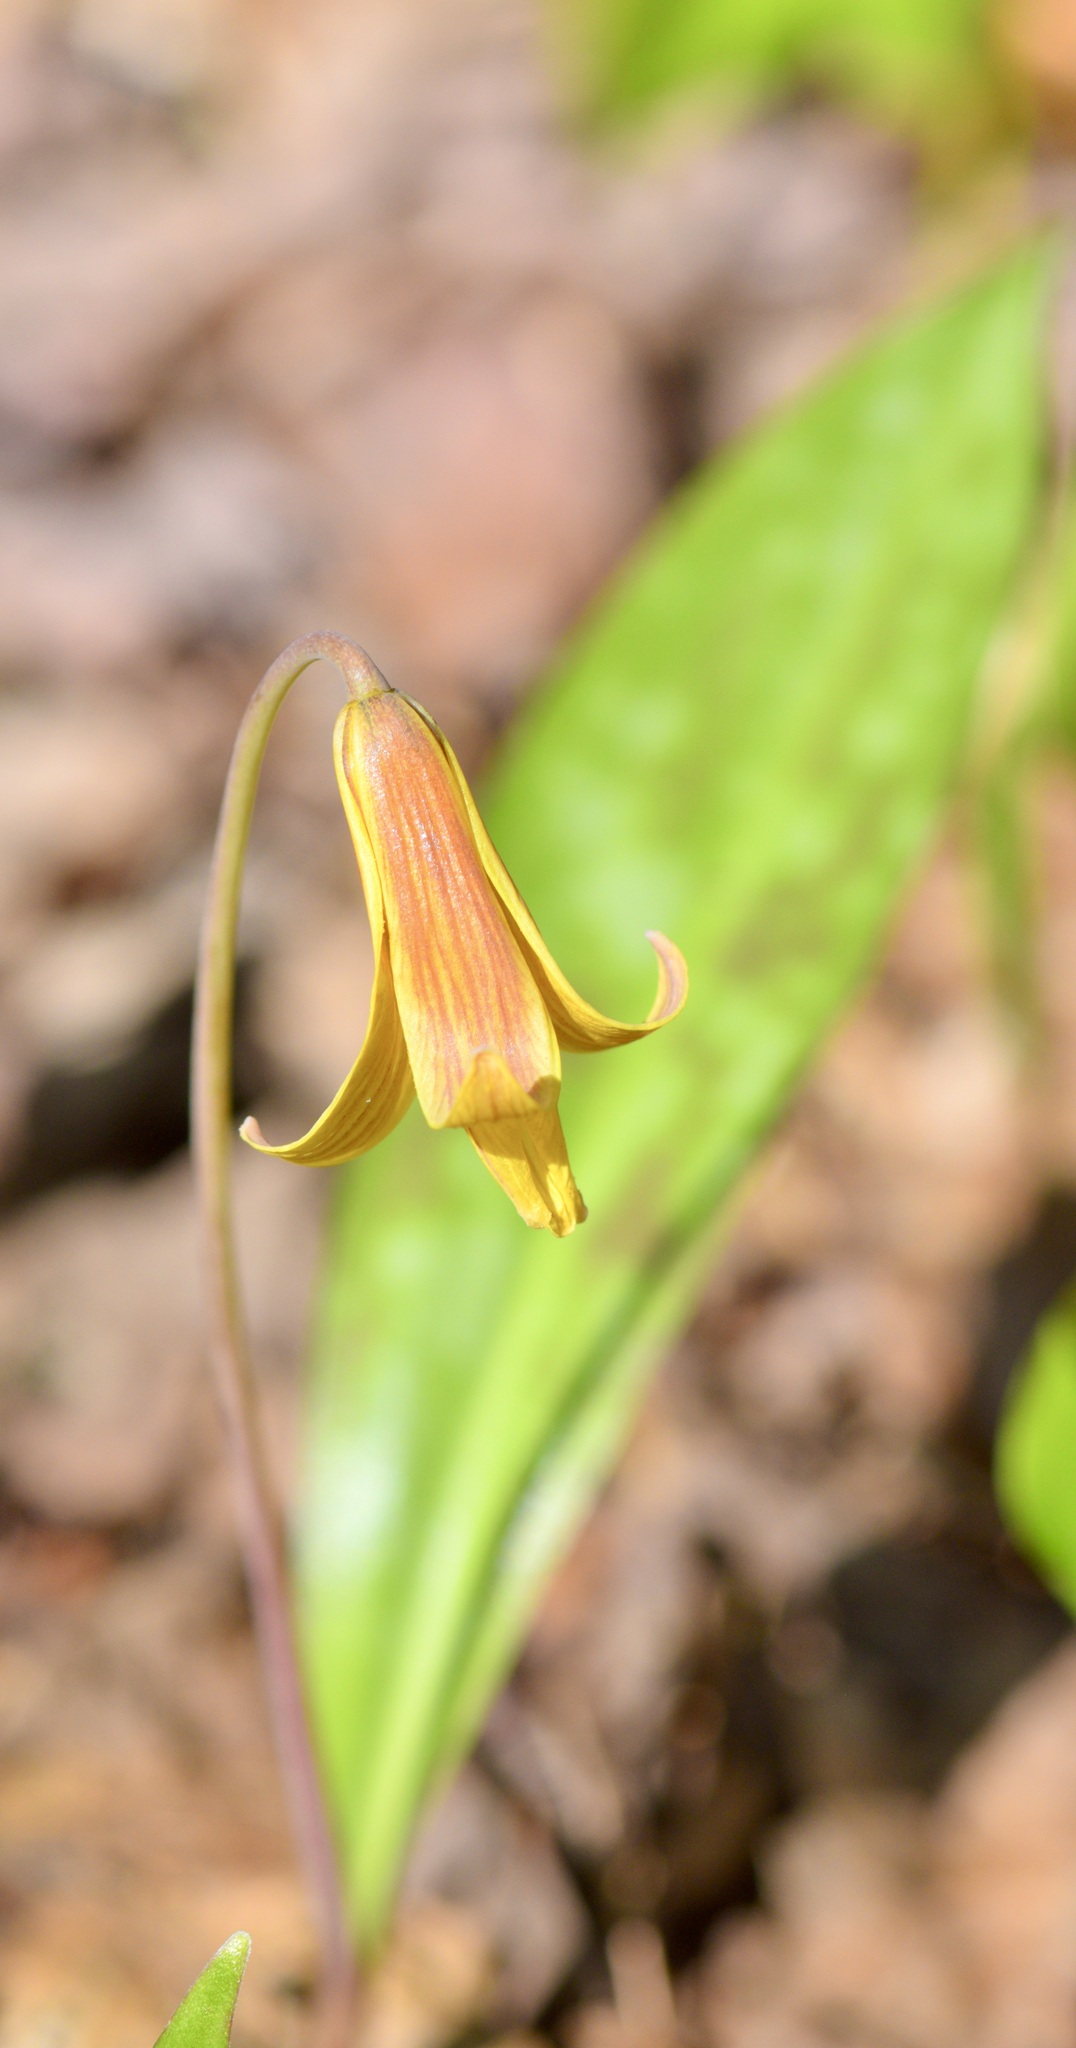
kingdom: Plantae
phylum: Tracheophyta
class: Liliopsida
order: Liliales
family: Liliaceae
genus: Erythronium
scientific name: Erythronium americanum
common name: Yellow adder's-tongue
